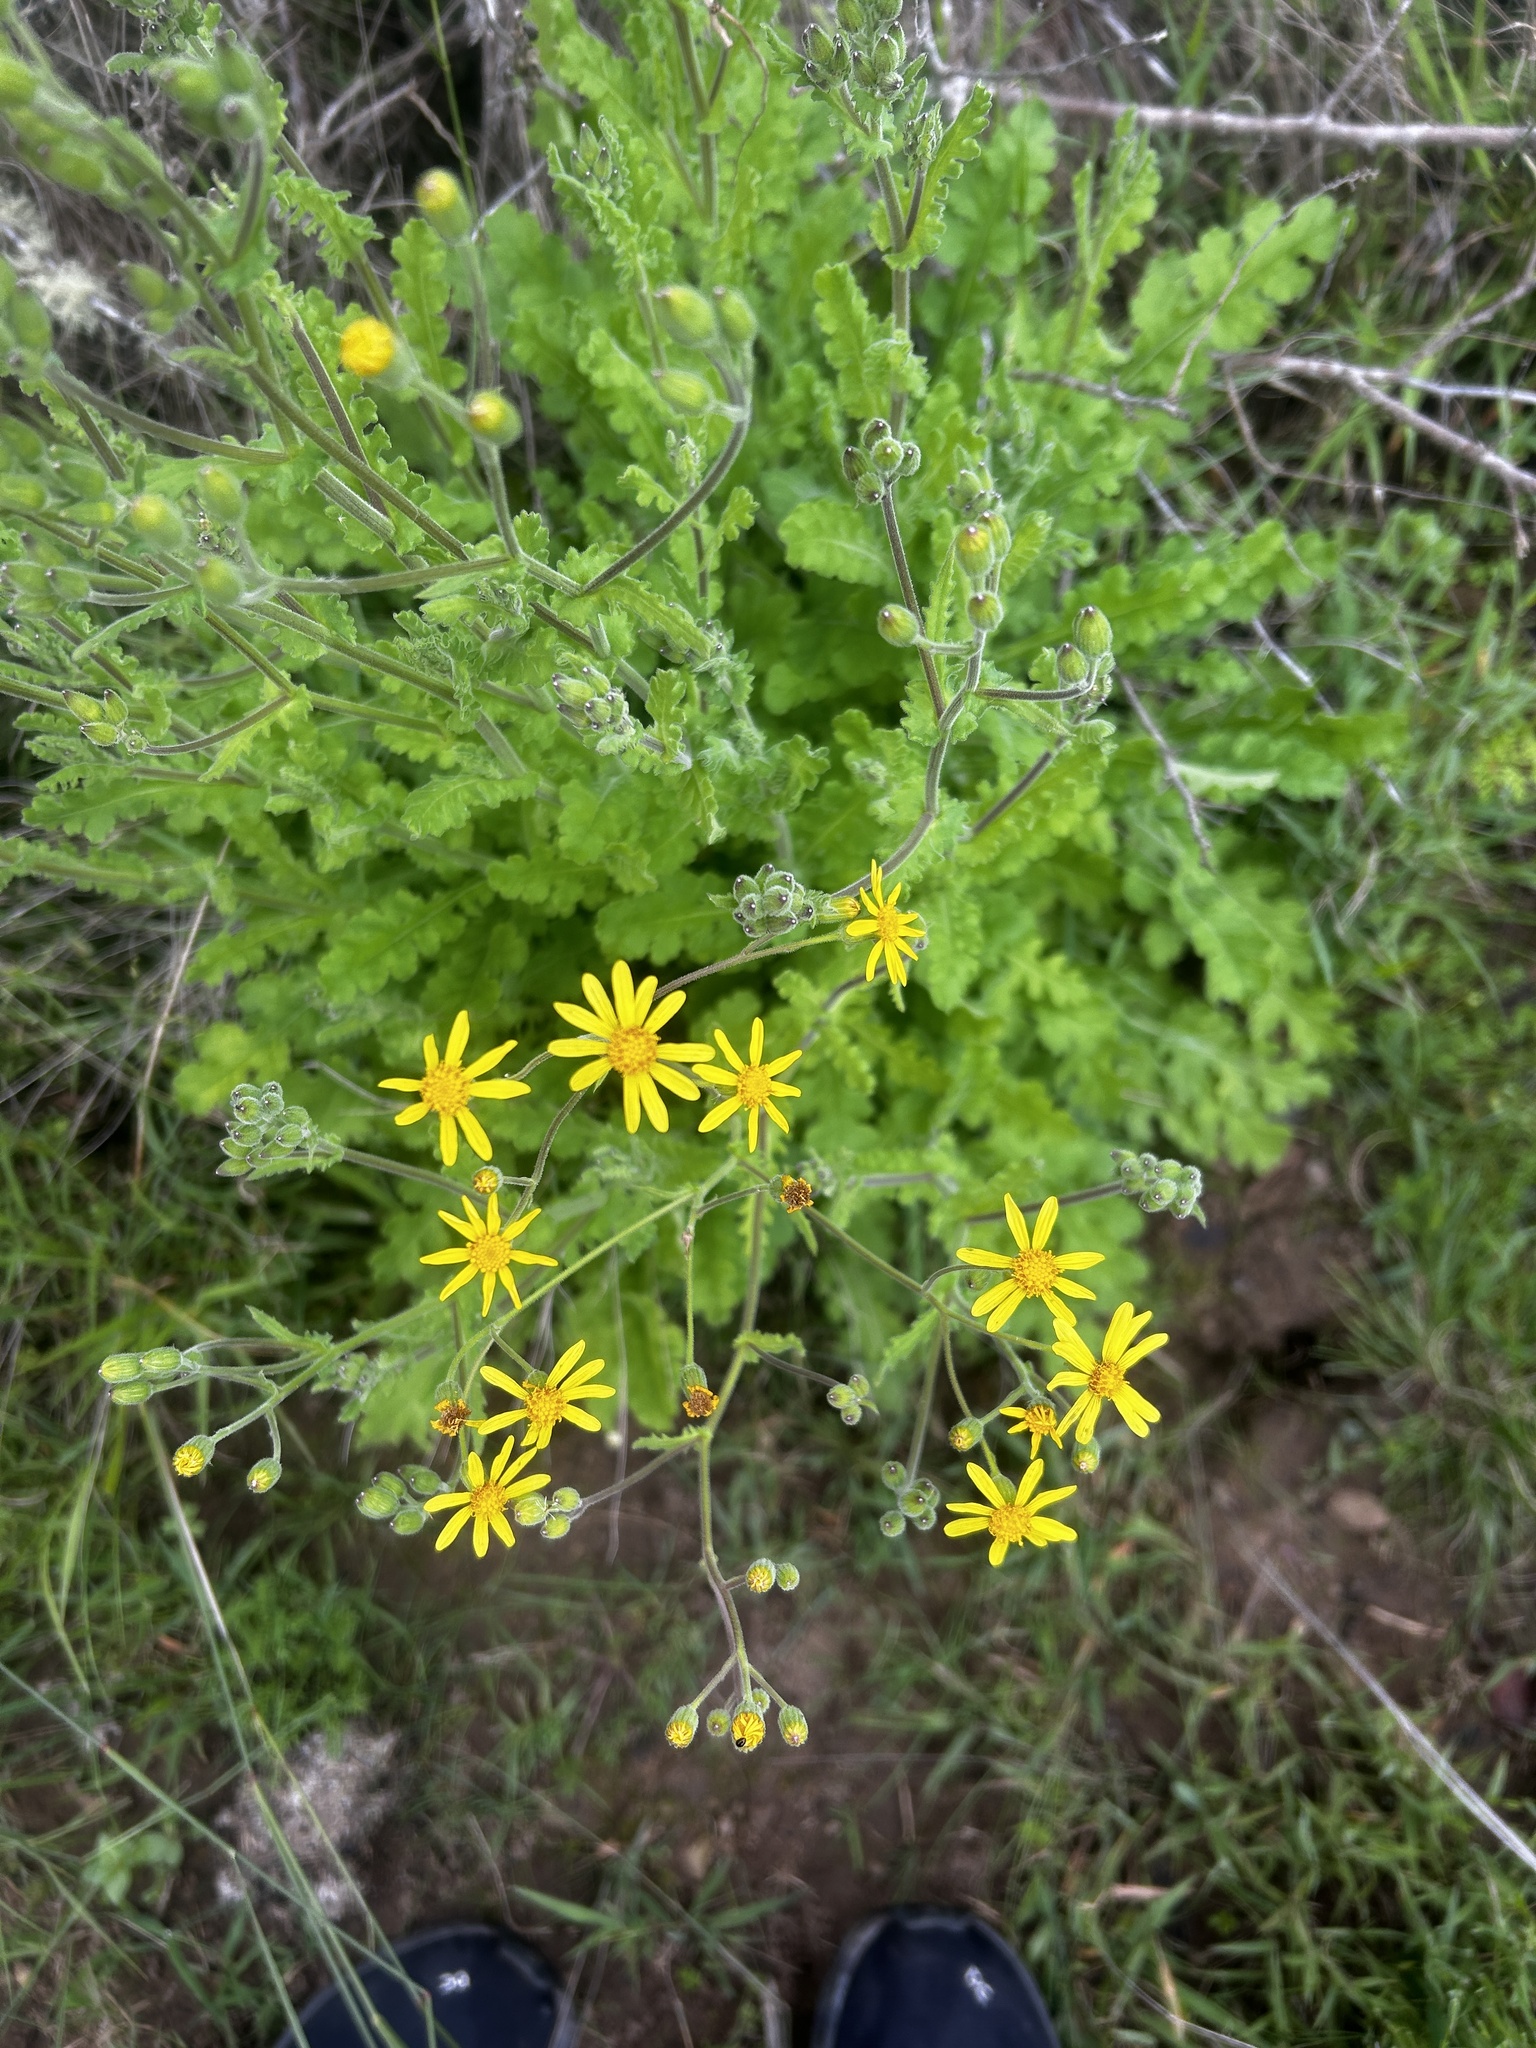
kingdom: Plantae
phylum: Tracheophyta
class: Magnoliopsida
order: Asterales
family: Asteraceae
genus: Senecio
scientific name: Senecio hastatus
